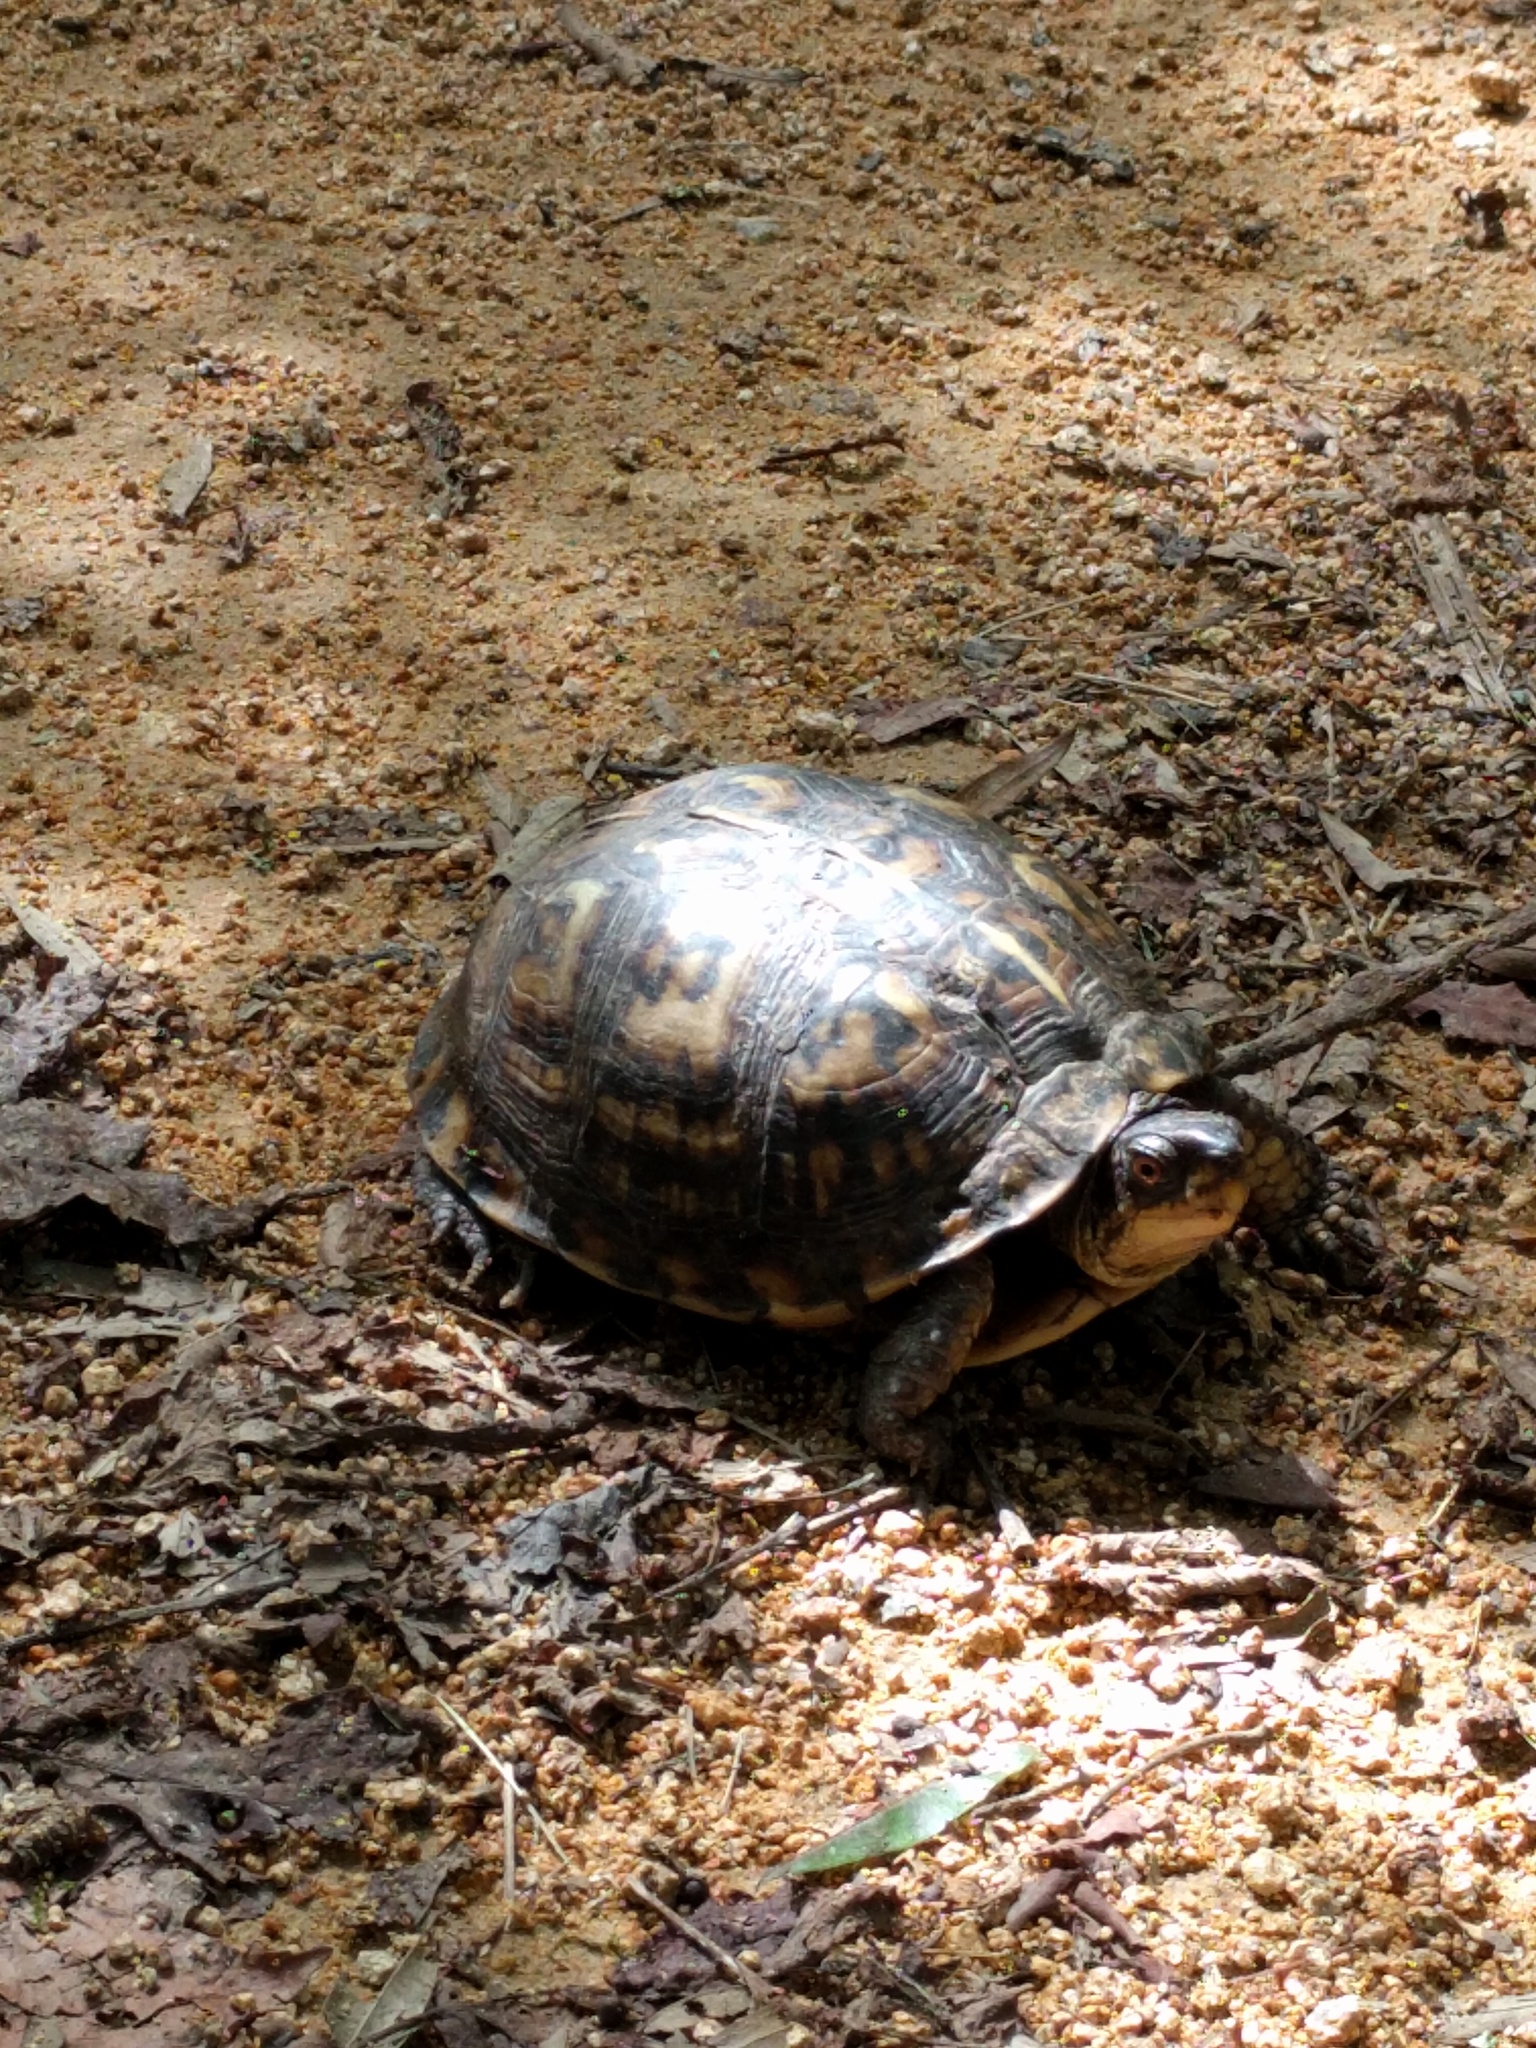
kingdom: Animalia
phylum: Chordata
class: Testudines
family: Emydidae
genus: Terrapene
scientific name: Terrapene carolina
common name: Common box turtle
